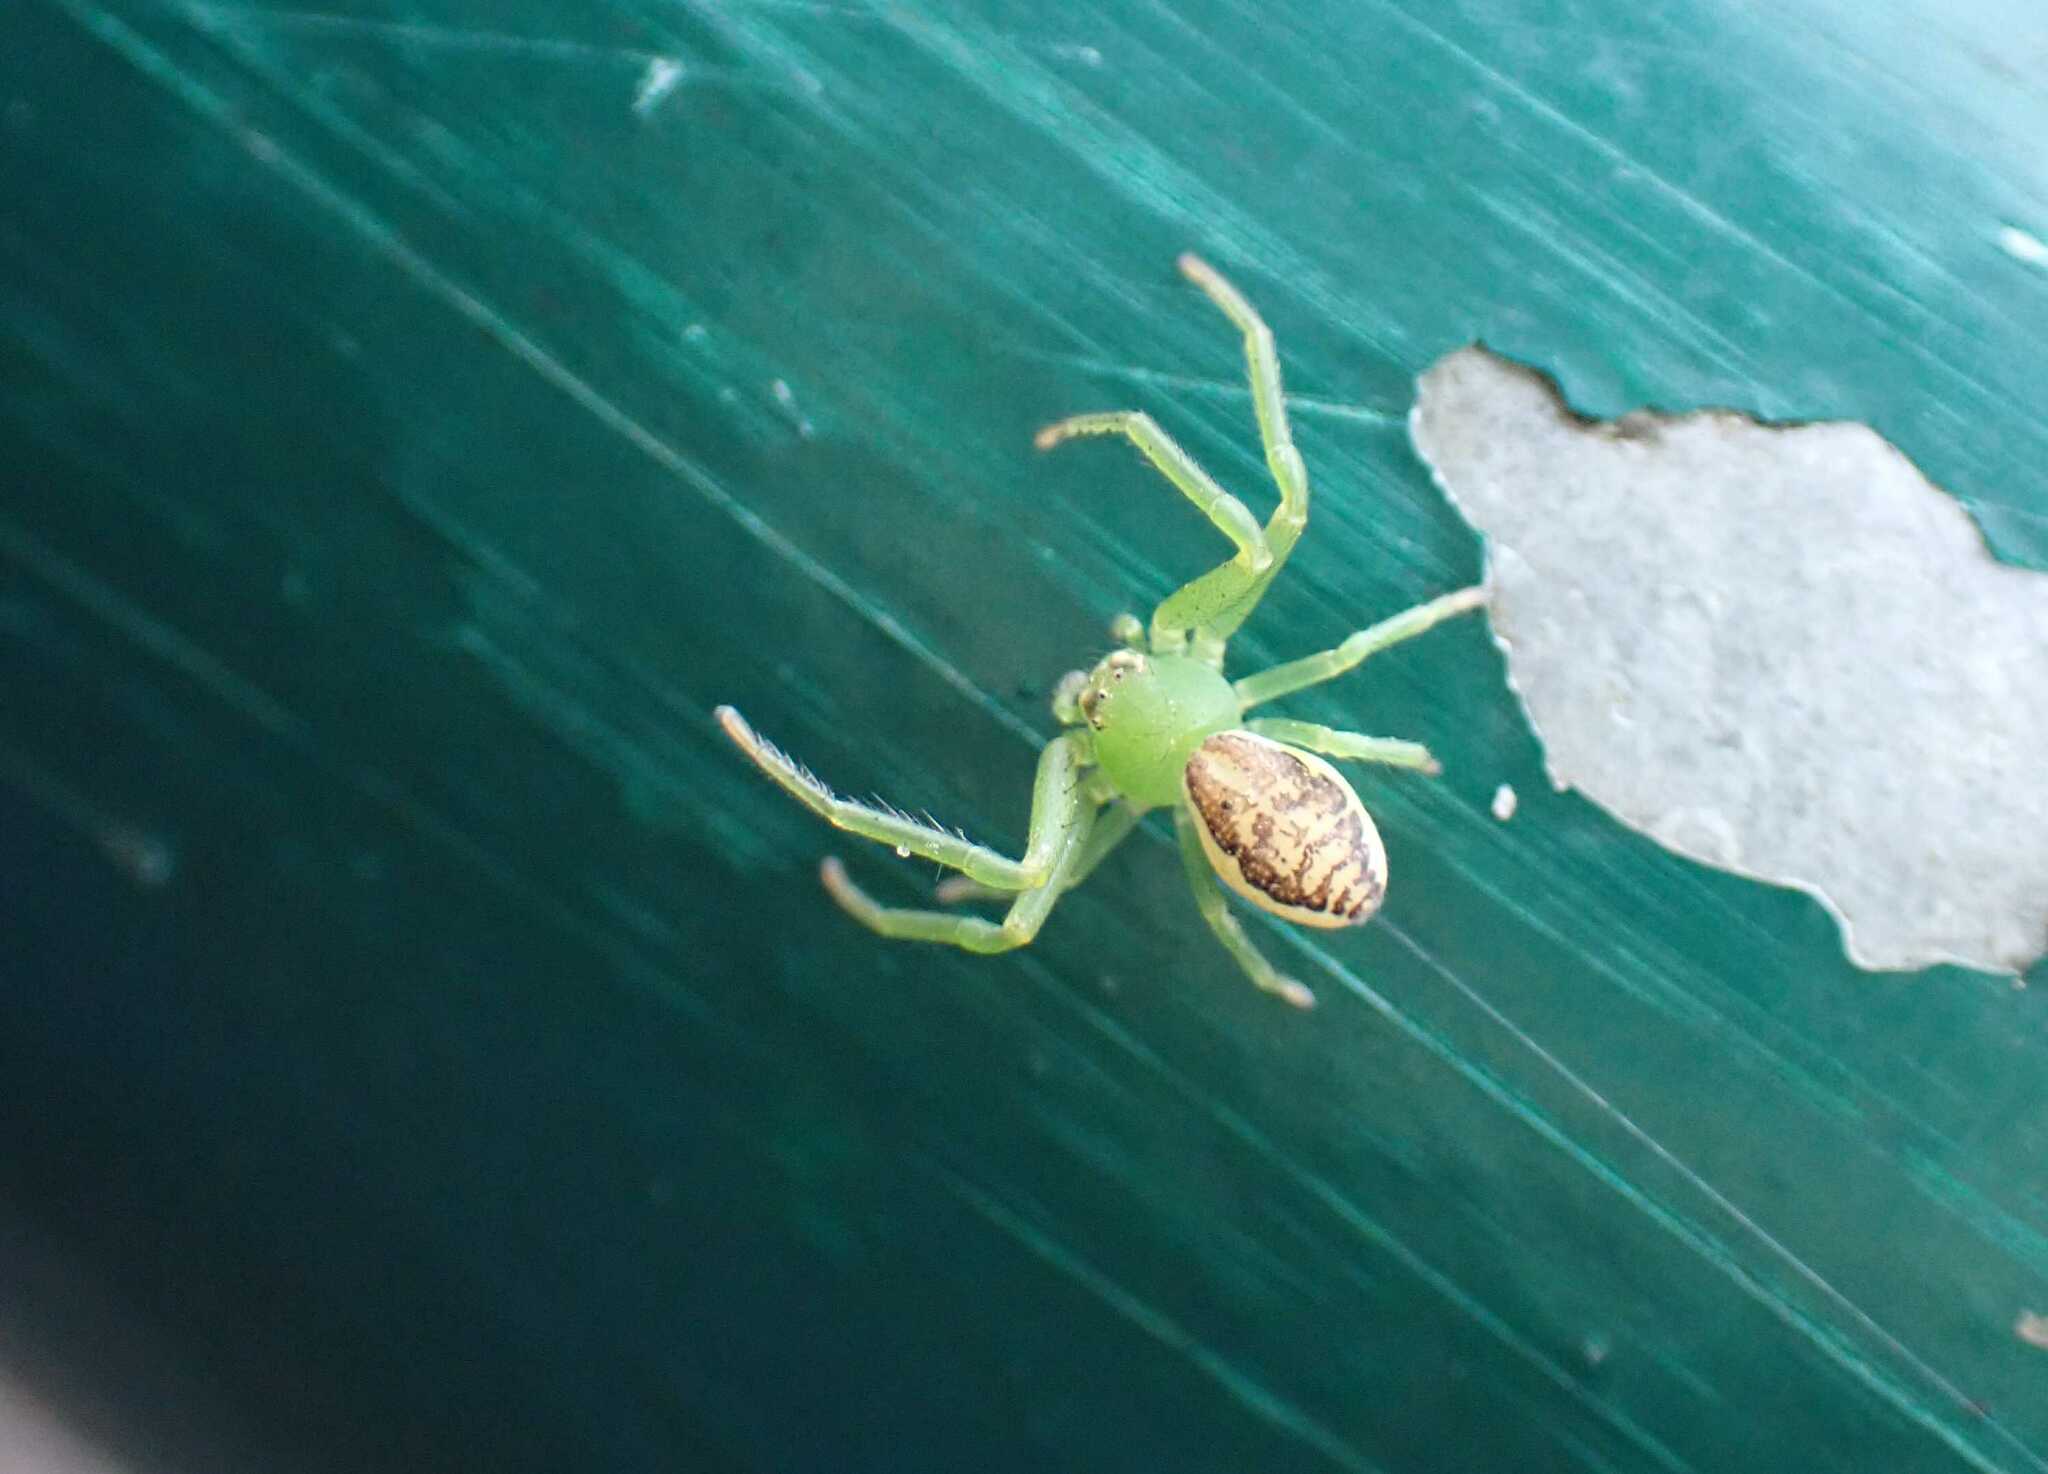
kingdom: Animalia
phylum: Arthropoda
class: Arachnida
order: Araneae
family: Thomisidae
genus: Diaea
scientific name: Diaea dorsata
